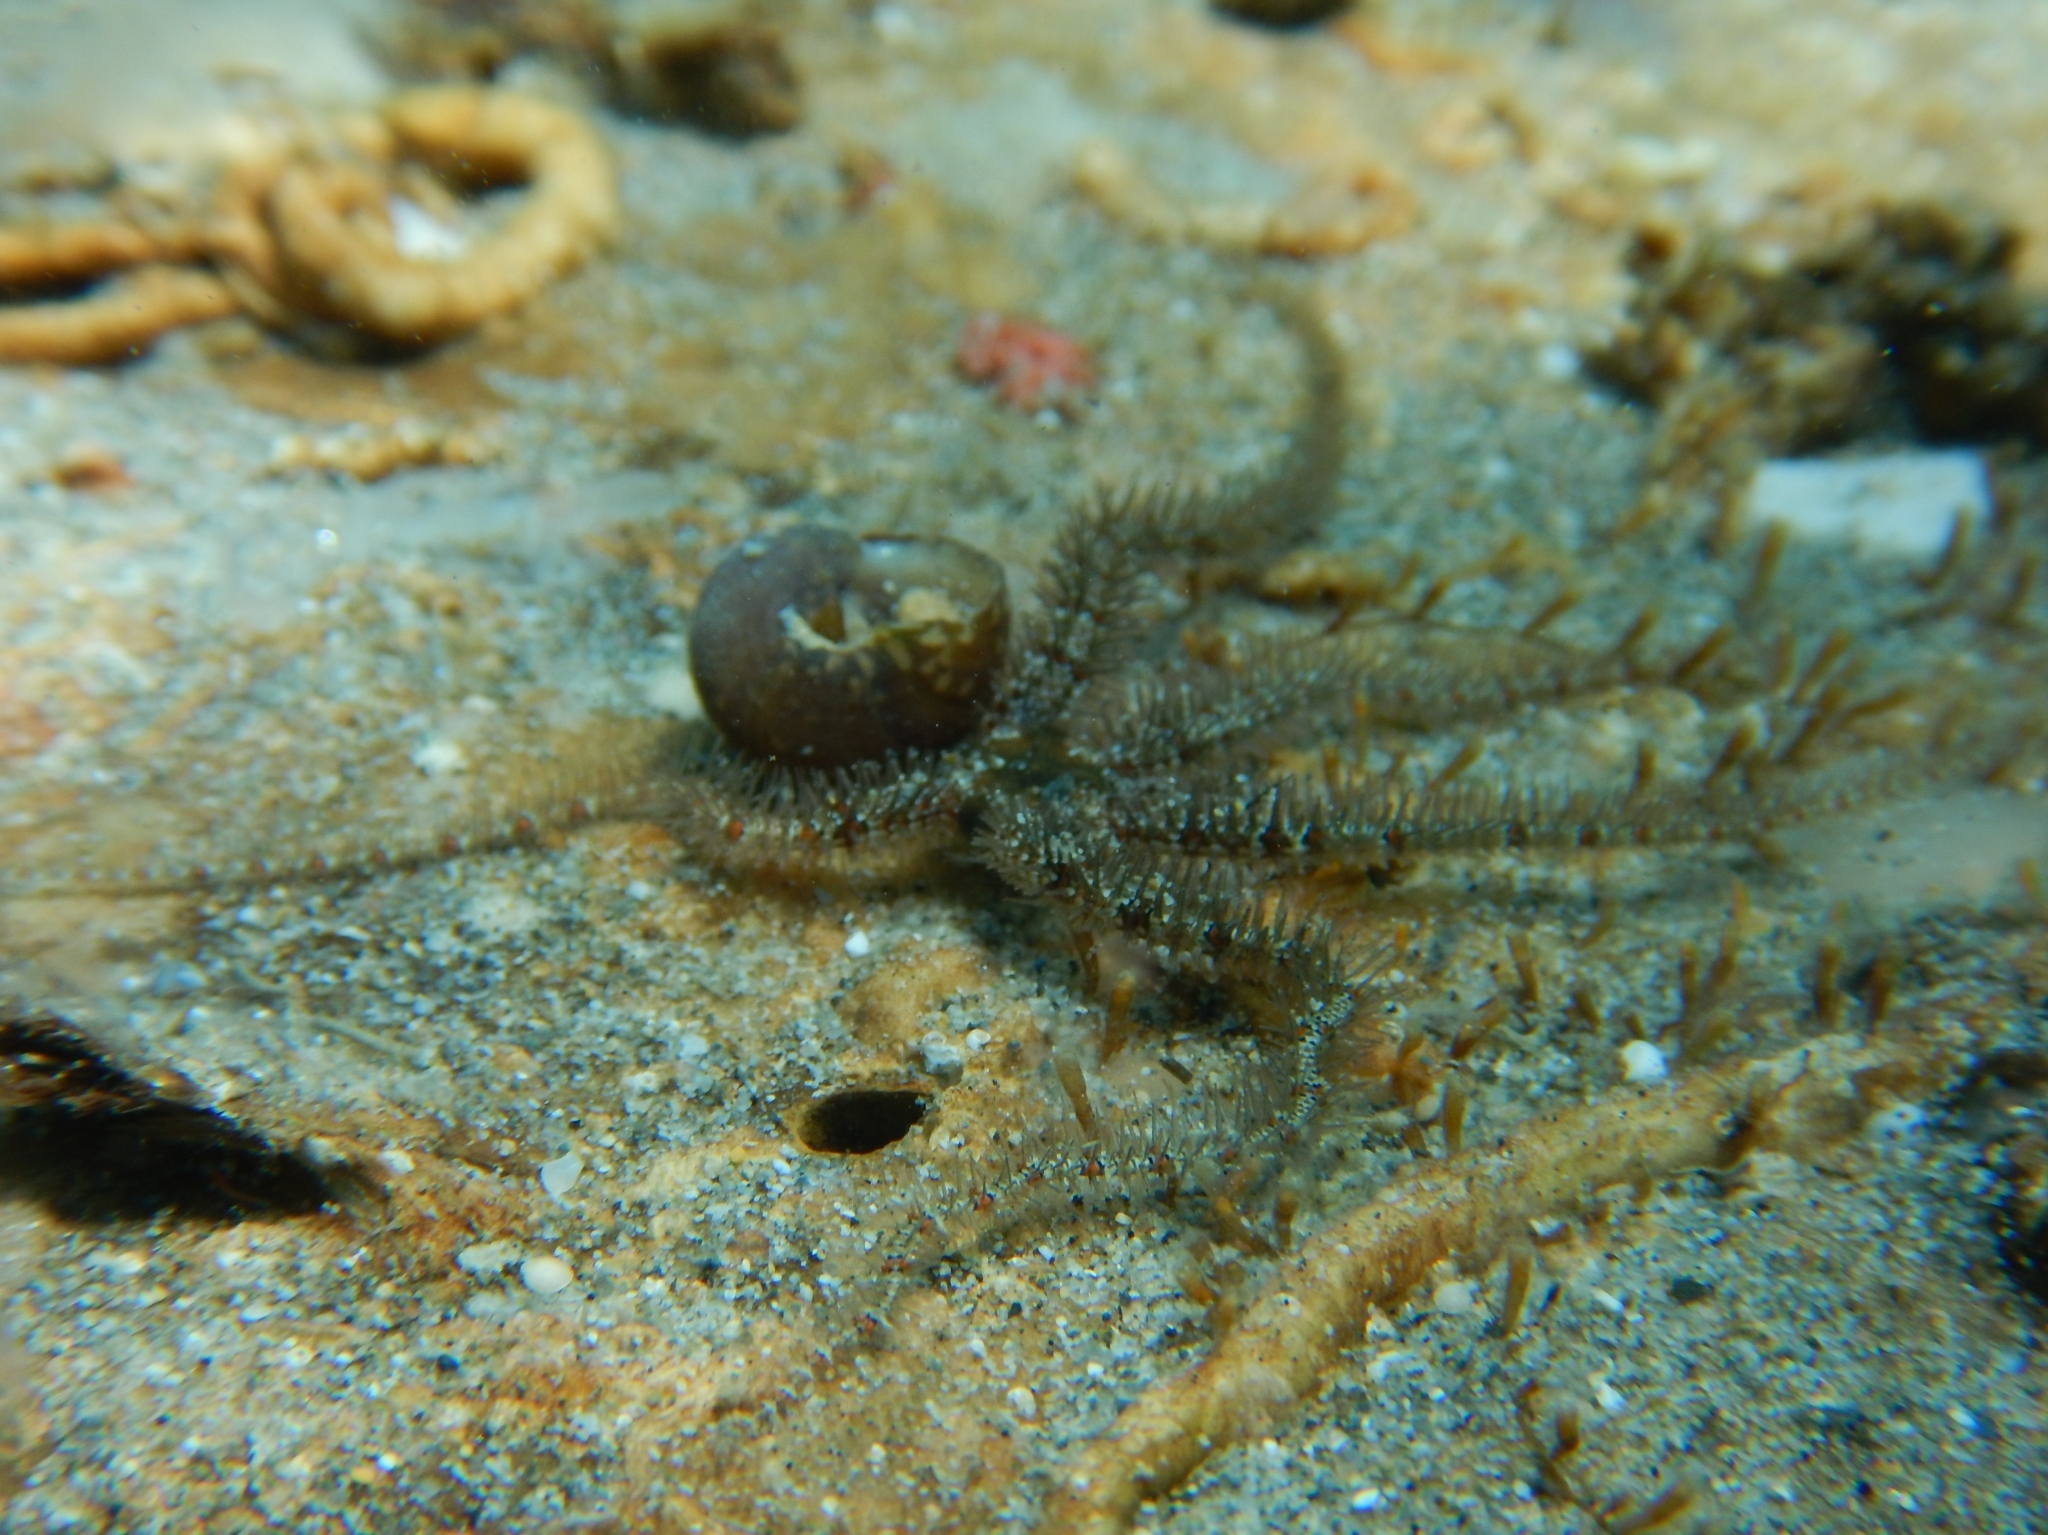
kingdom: Animalia
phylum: Echinodermata
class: Ophiuroidea
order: Amphilepidida
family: Ophiotrichidae
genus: Ophiothrix
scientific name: Ophiothrix fragilis
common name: Common brittlestar
